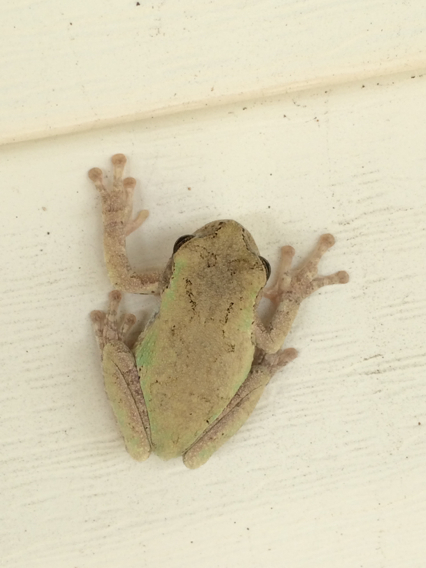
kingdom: Animalia
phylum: Chordata
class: Amphibia
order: Anura
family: Hylidae
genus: Hyla
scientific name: Hyla
